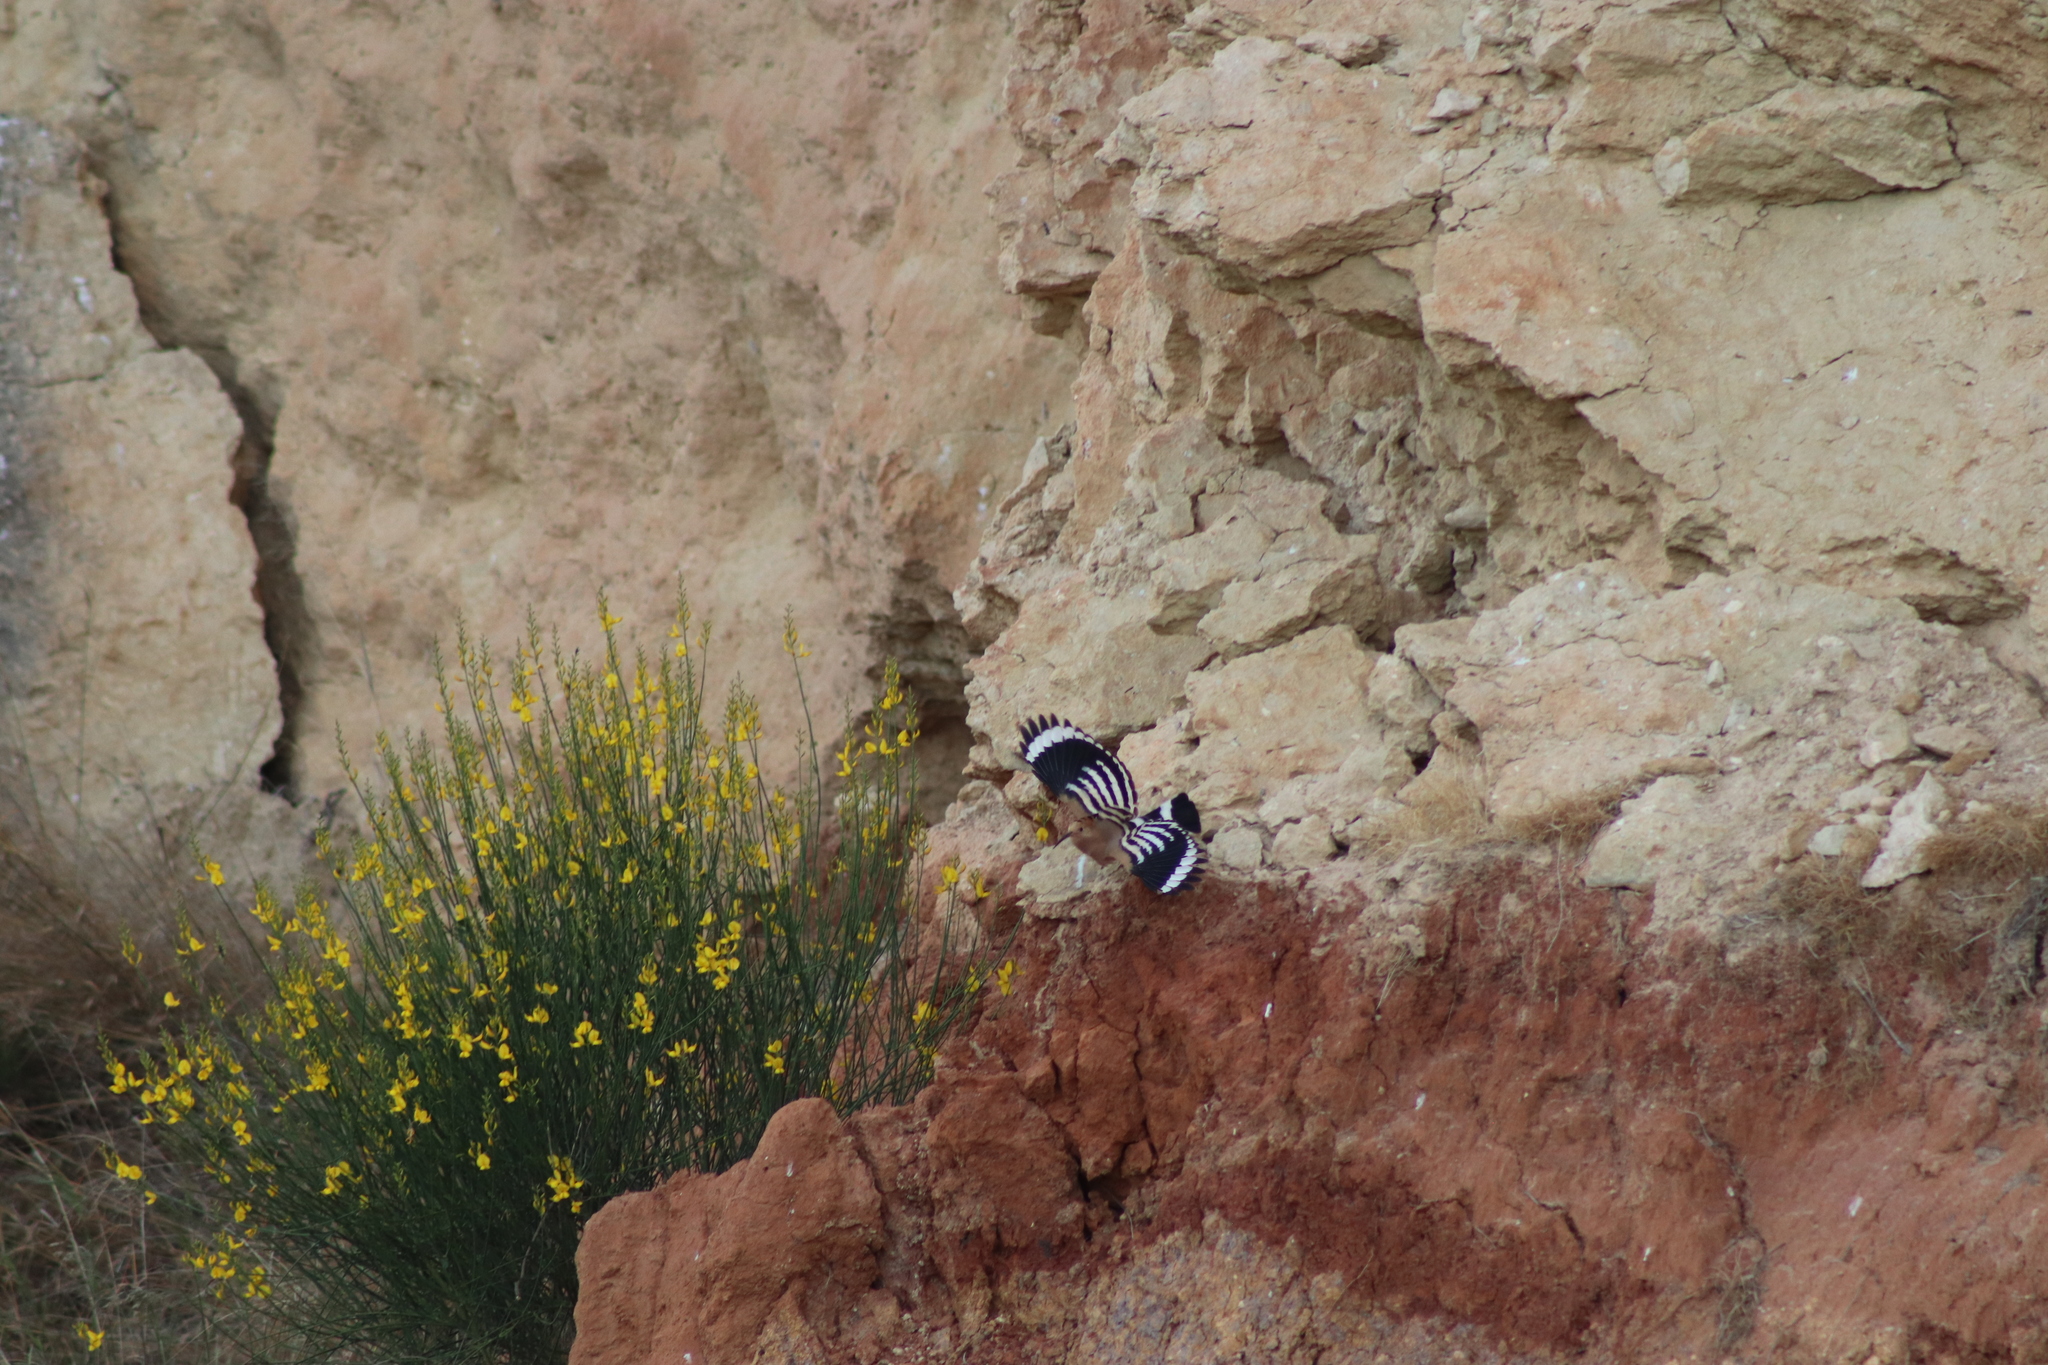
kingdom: Animalia
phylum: Chordata
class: Aves
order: Bucerotiformes
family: Upupidae
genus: Upupa
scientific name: Upupa epops
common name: Eurasian hoopoe
